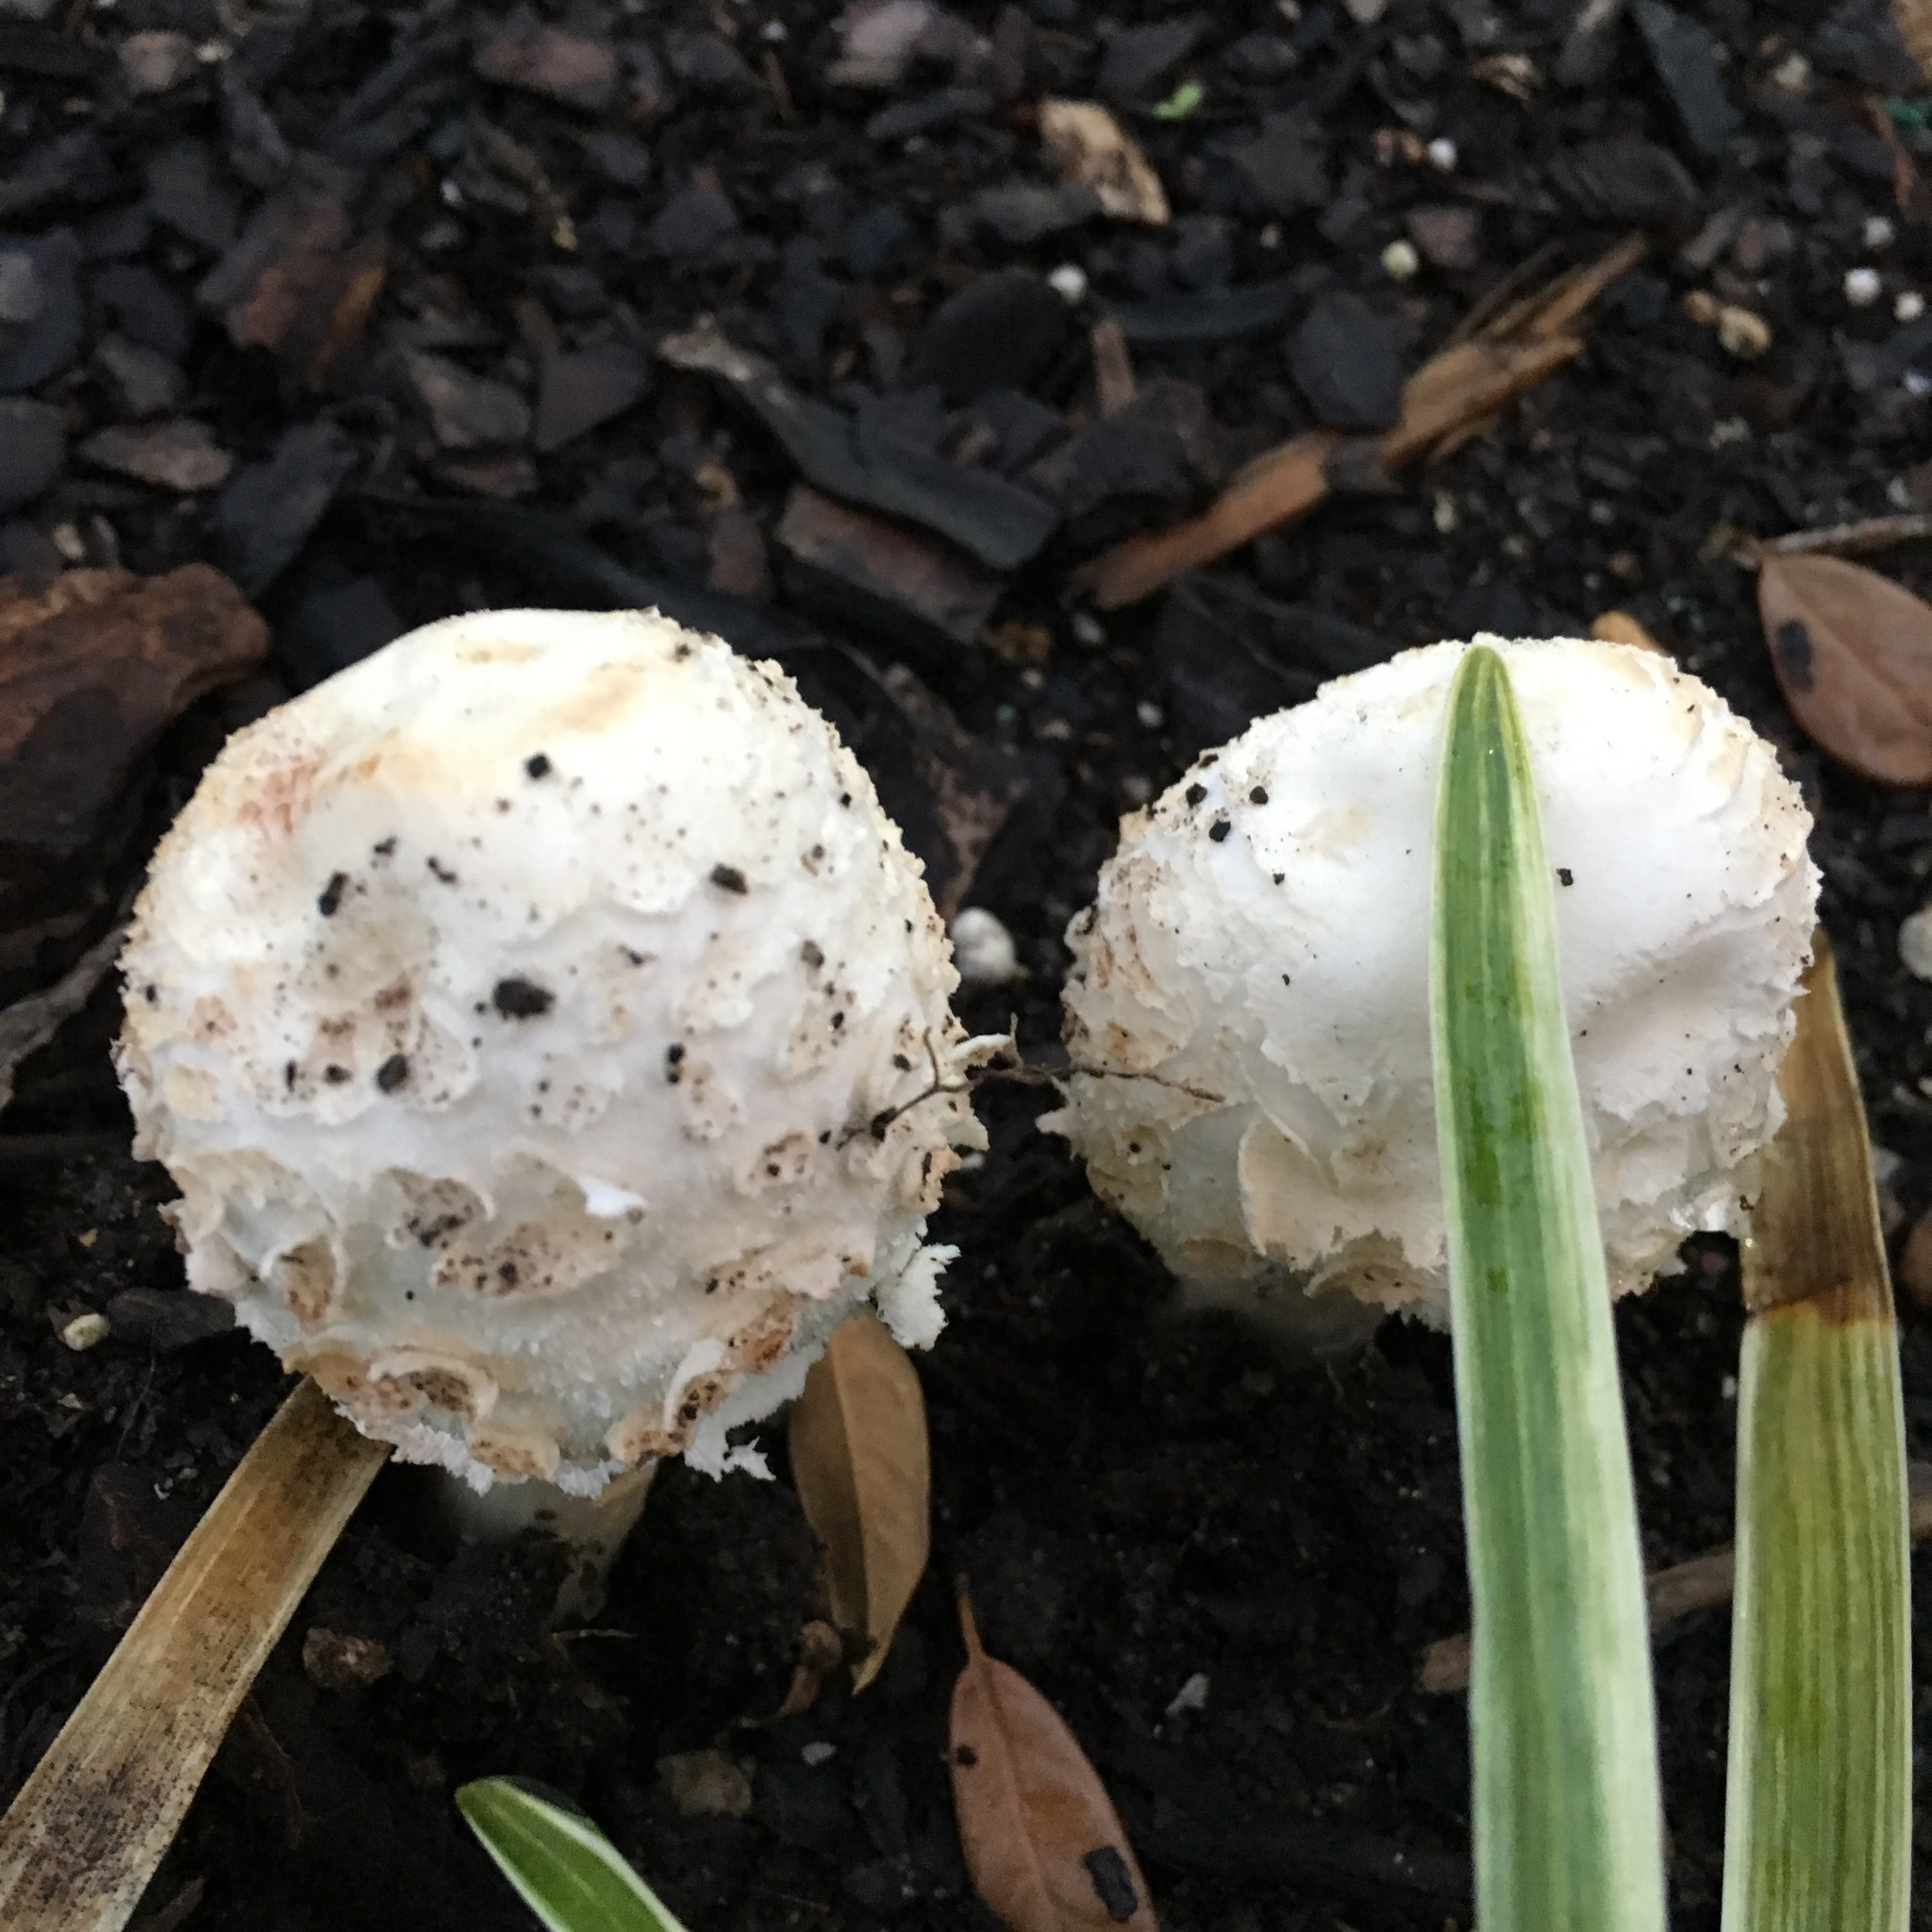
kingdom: Fungi
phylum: Basidiomycota
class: Agaricomycetes
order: Agaricales
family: Agaricaceae
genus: Chlorophyllum
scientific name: Chlorophyllum molybdites
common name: False parasol
